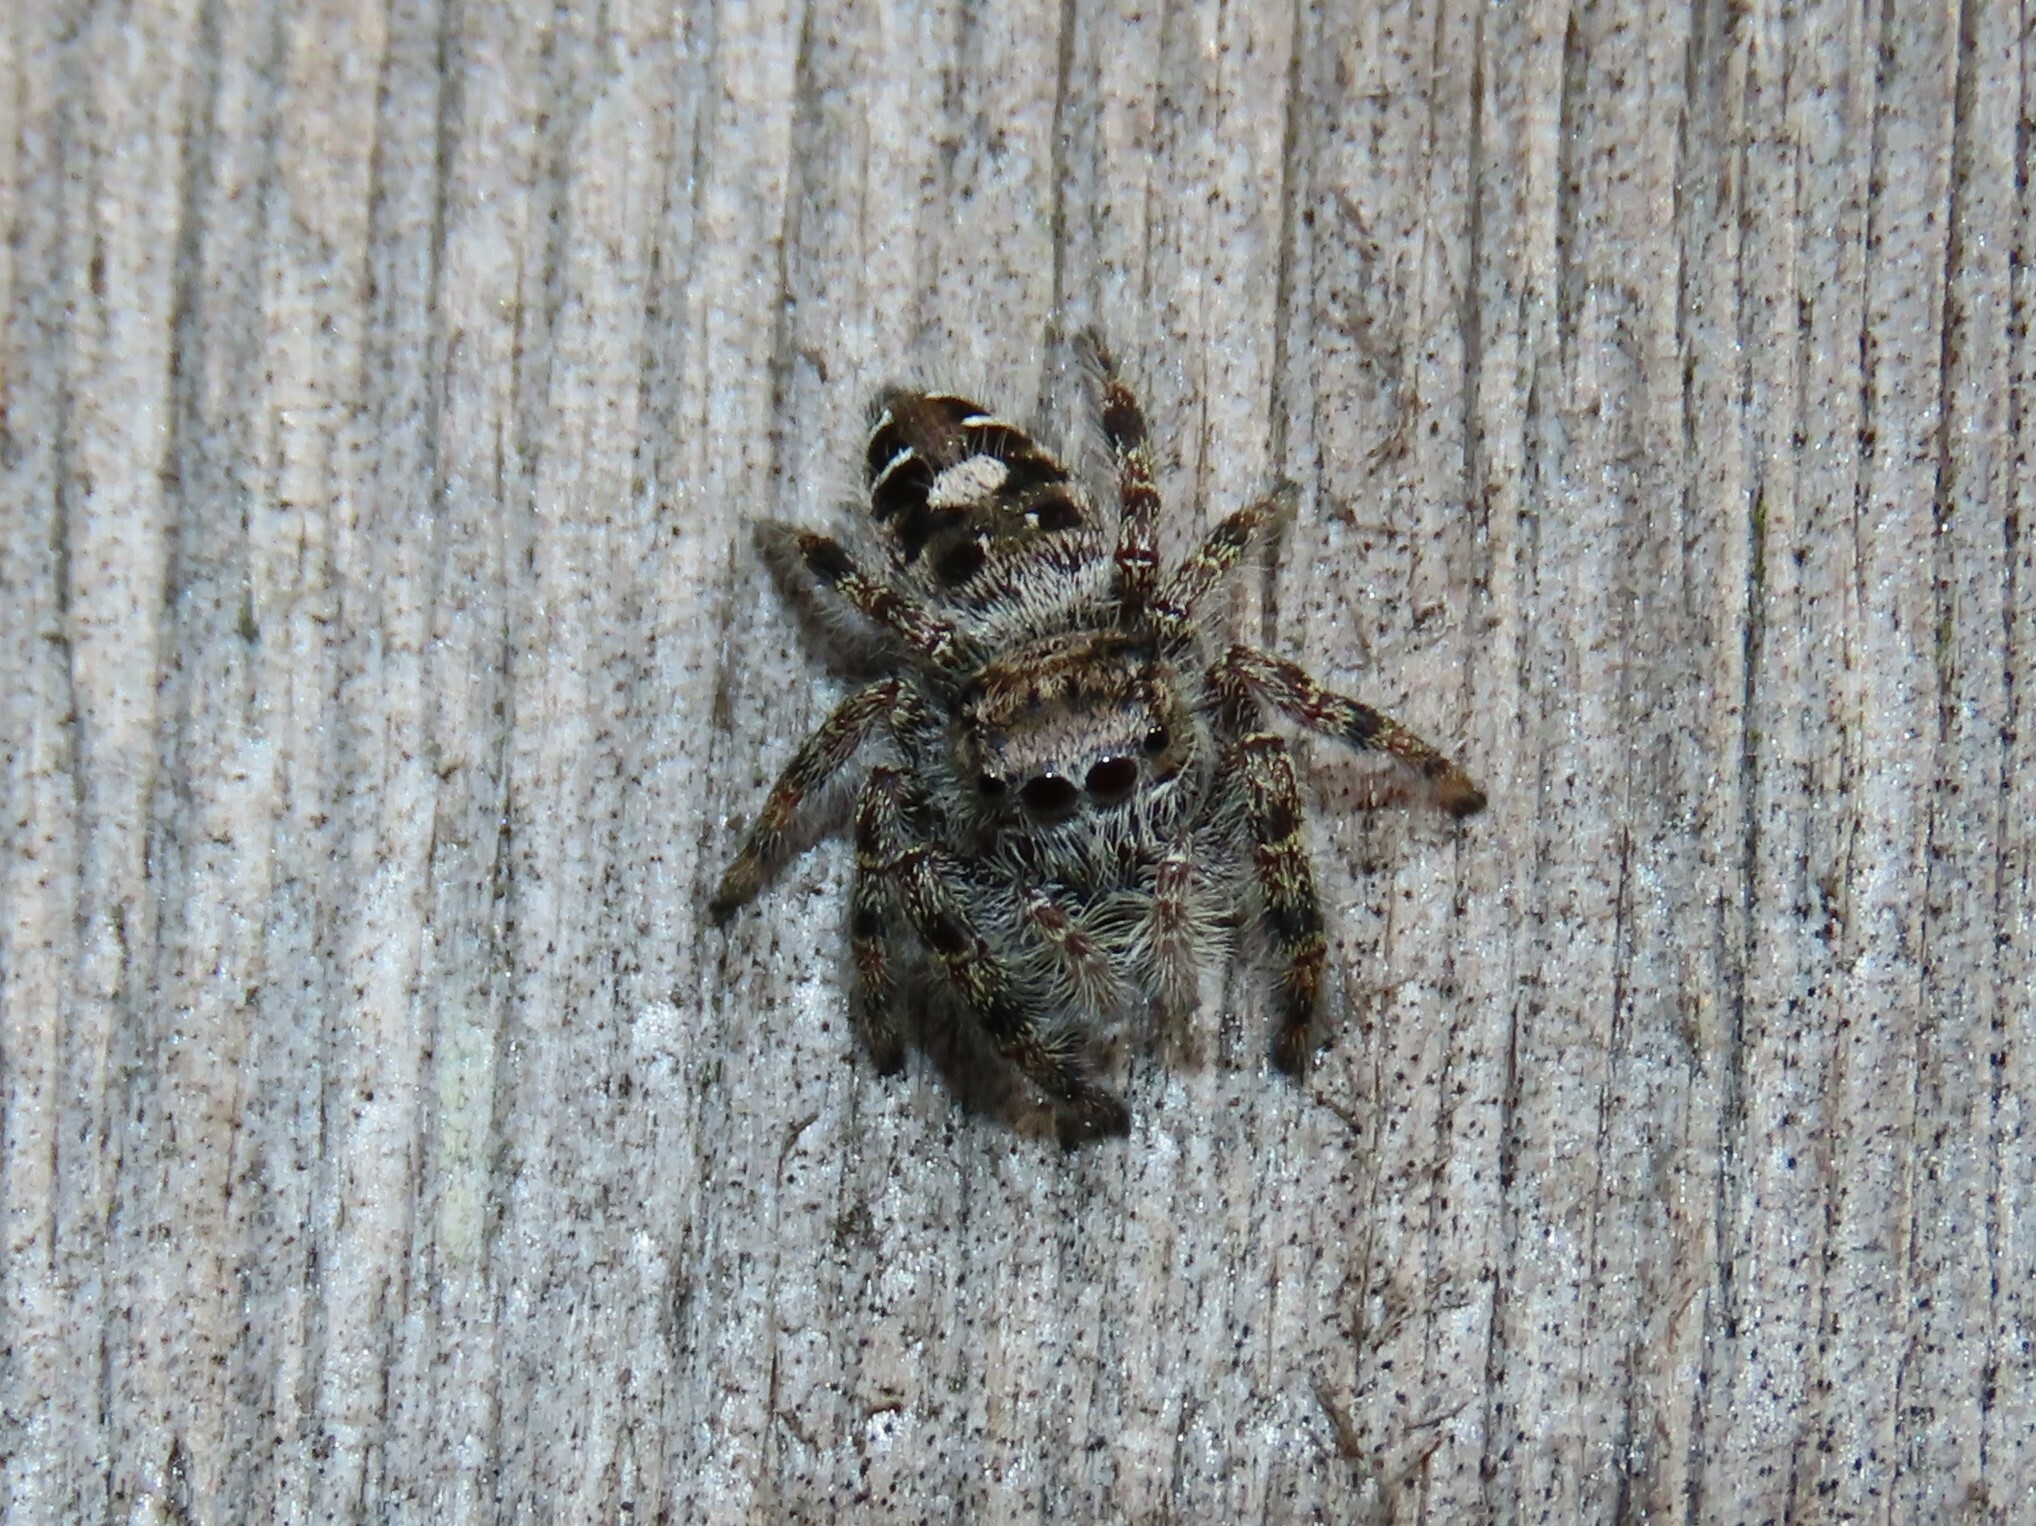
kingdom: Animalia
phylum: Arthropoda
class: Arachnida
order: Araneae
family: Salticidae
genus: Phidippus
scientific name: Phidippus putnami
